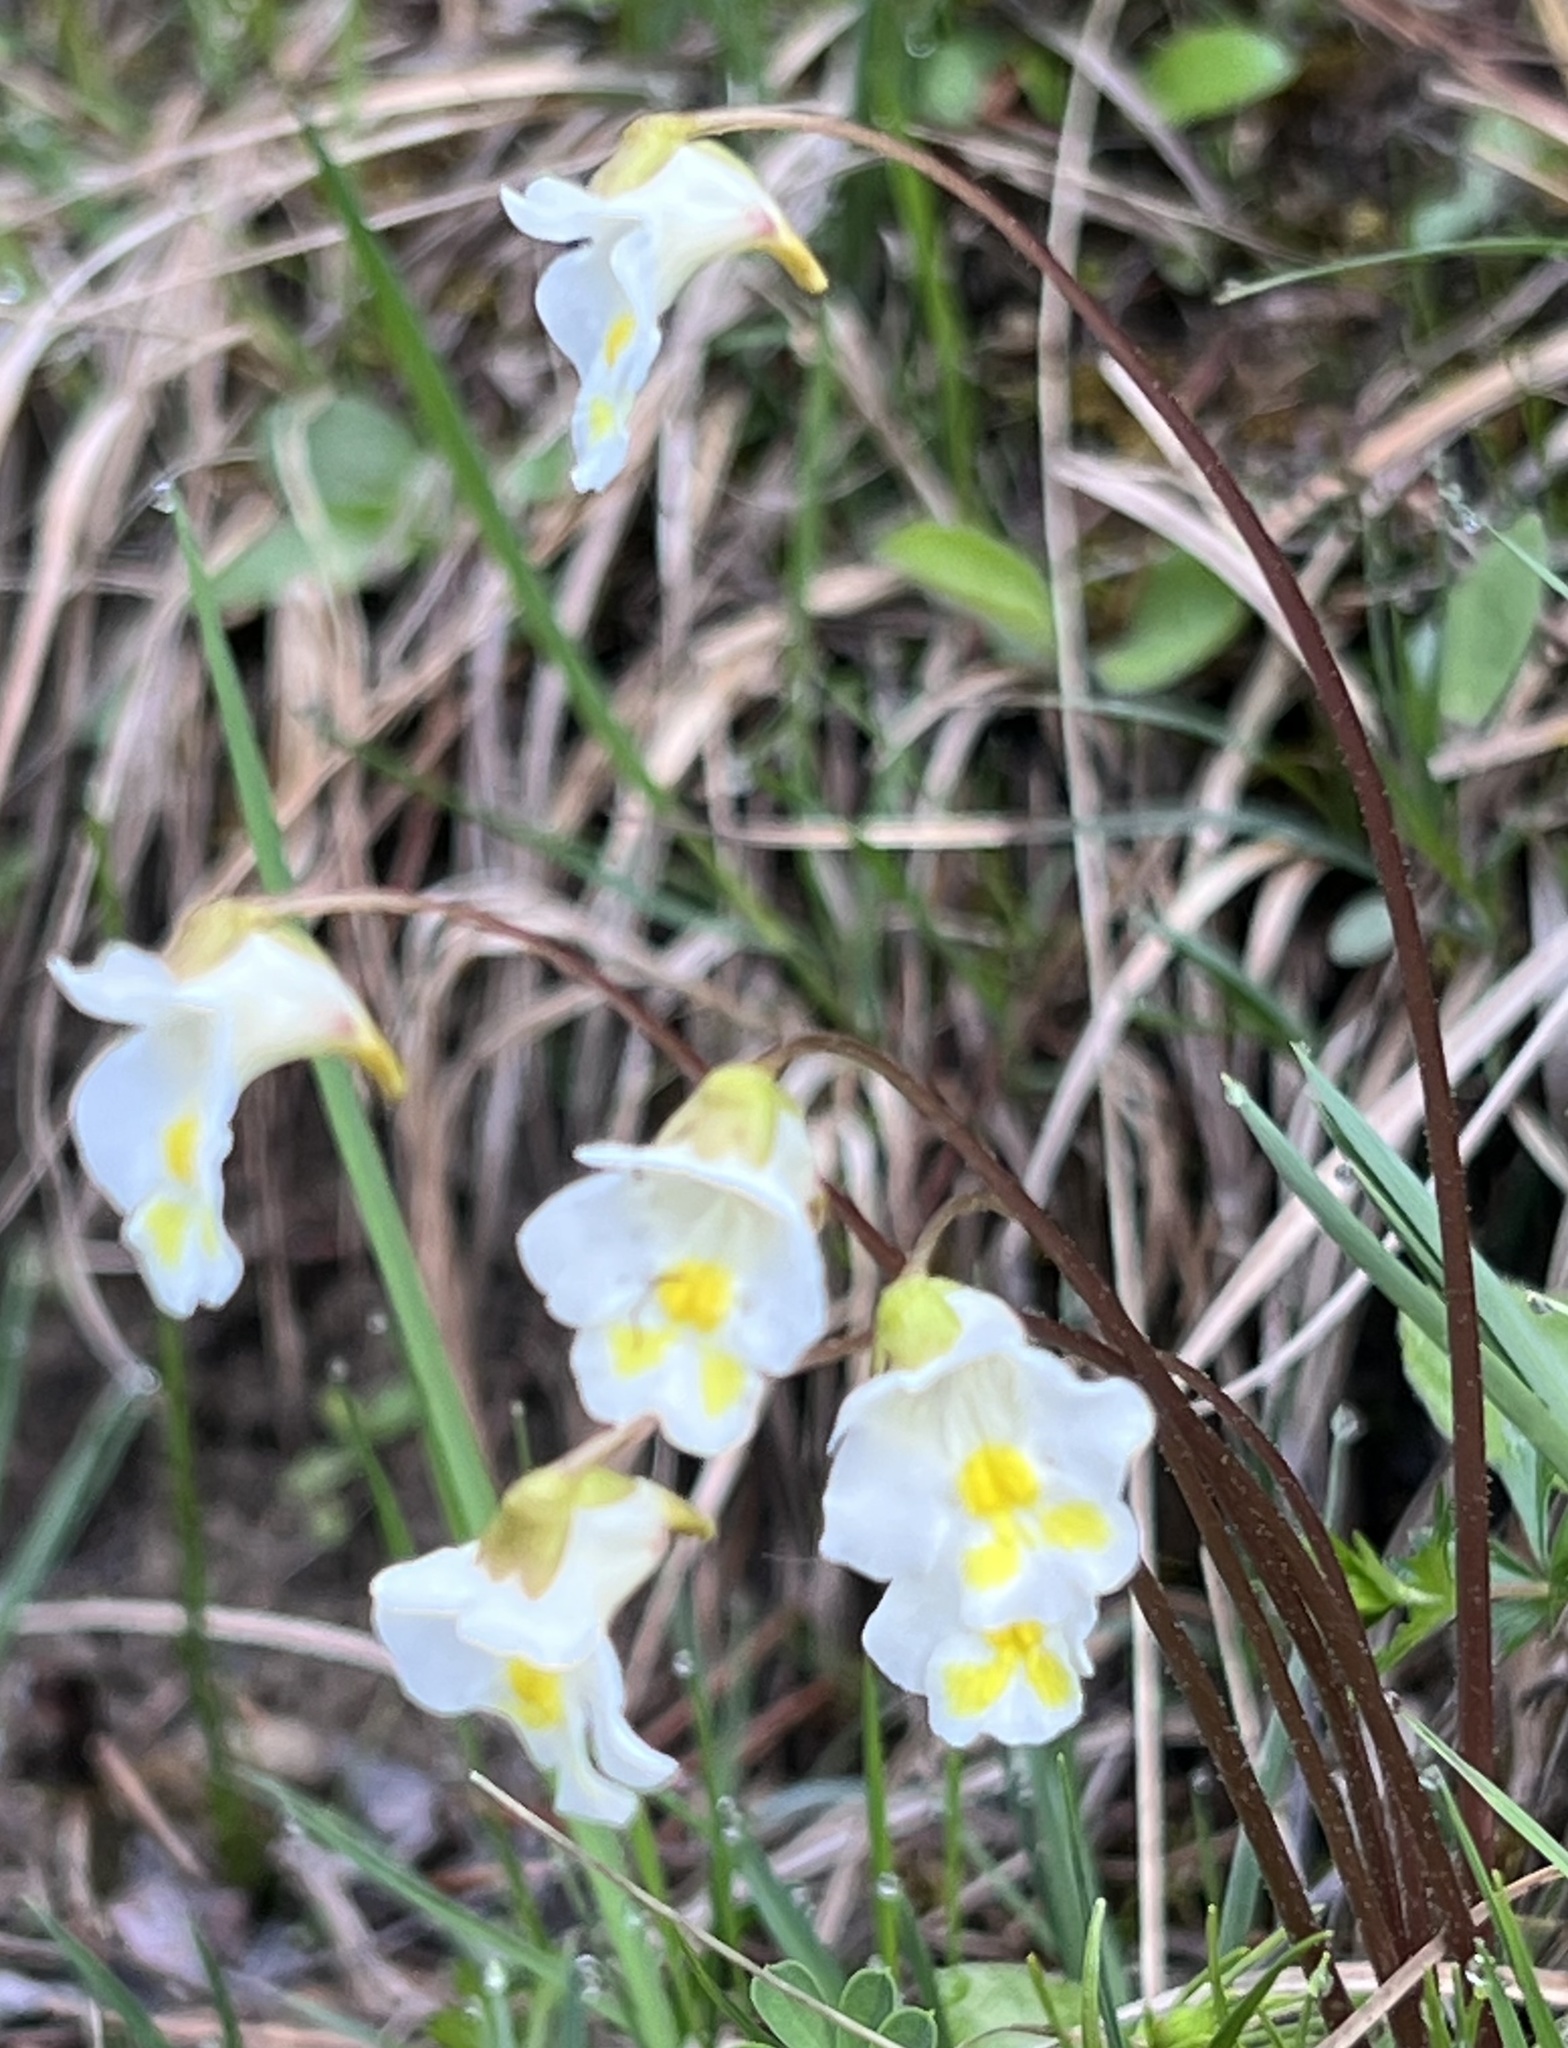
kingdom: Plantae
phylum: Tracheophyta
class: Magnoliopsida
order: Lamiales
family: Lentibulariaceae
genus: Pinguicula
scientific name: Pinguicula alpina
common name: Alpine butterwort
